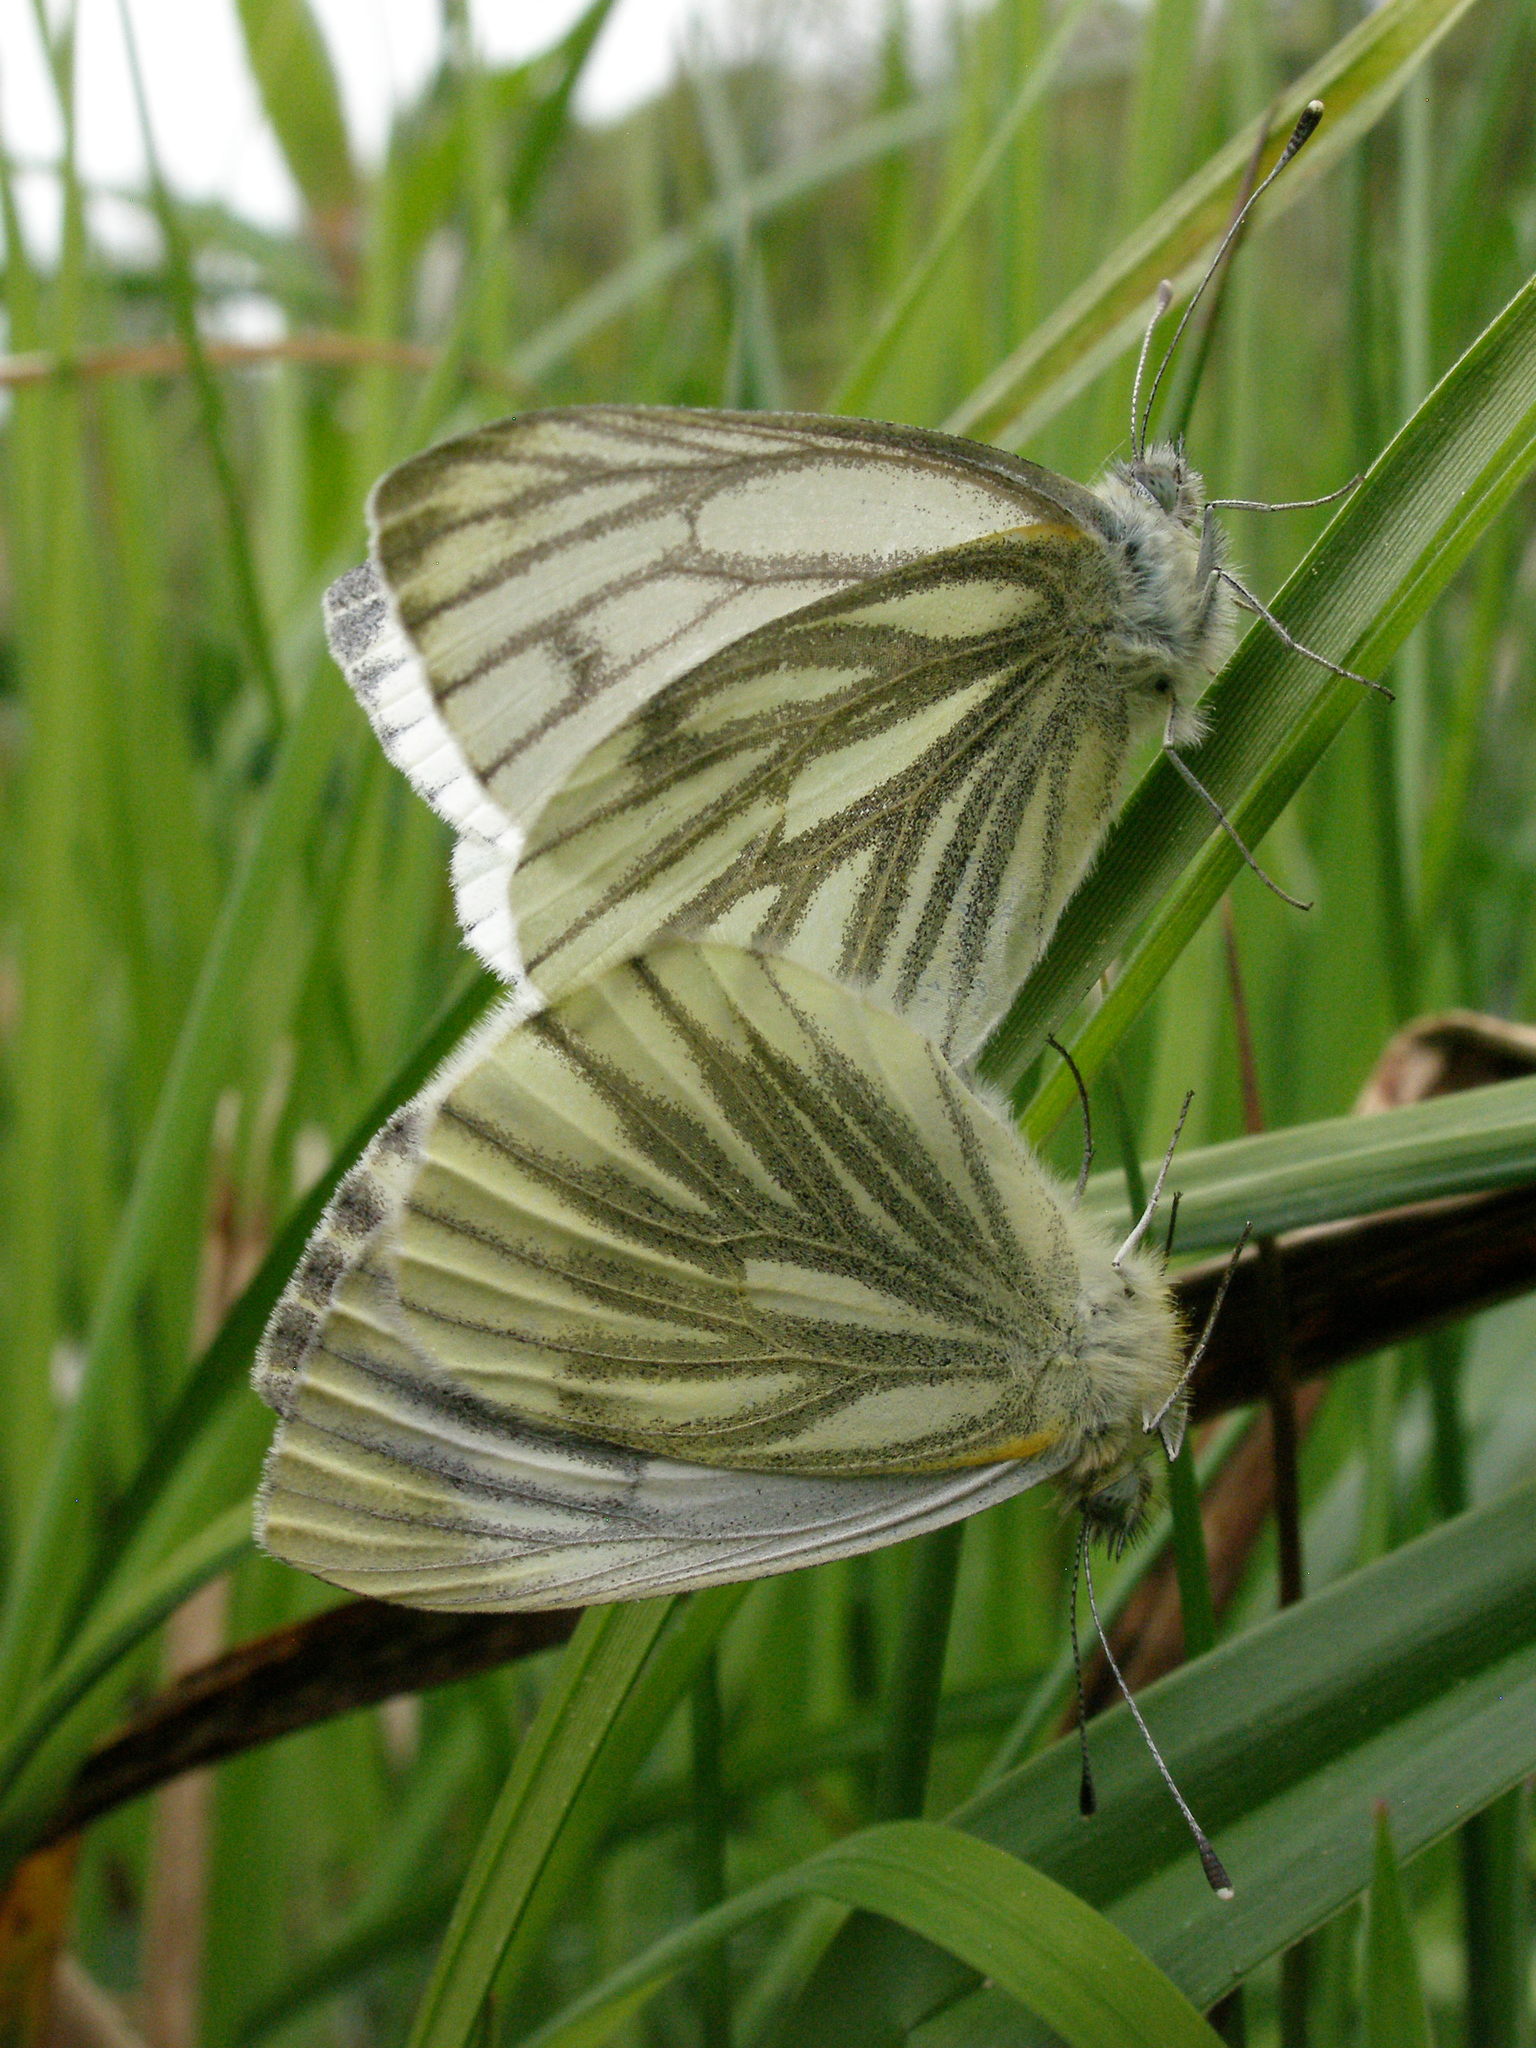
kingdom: Animalia
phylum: Arthropoda
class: Insecta
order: Lepidoptera
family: Pieridae
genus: Pieris
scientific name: Pieris napi
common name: Green-veined white
